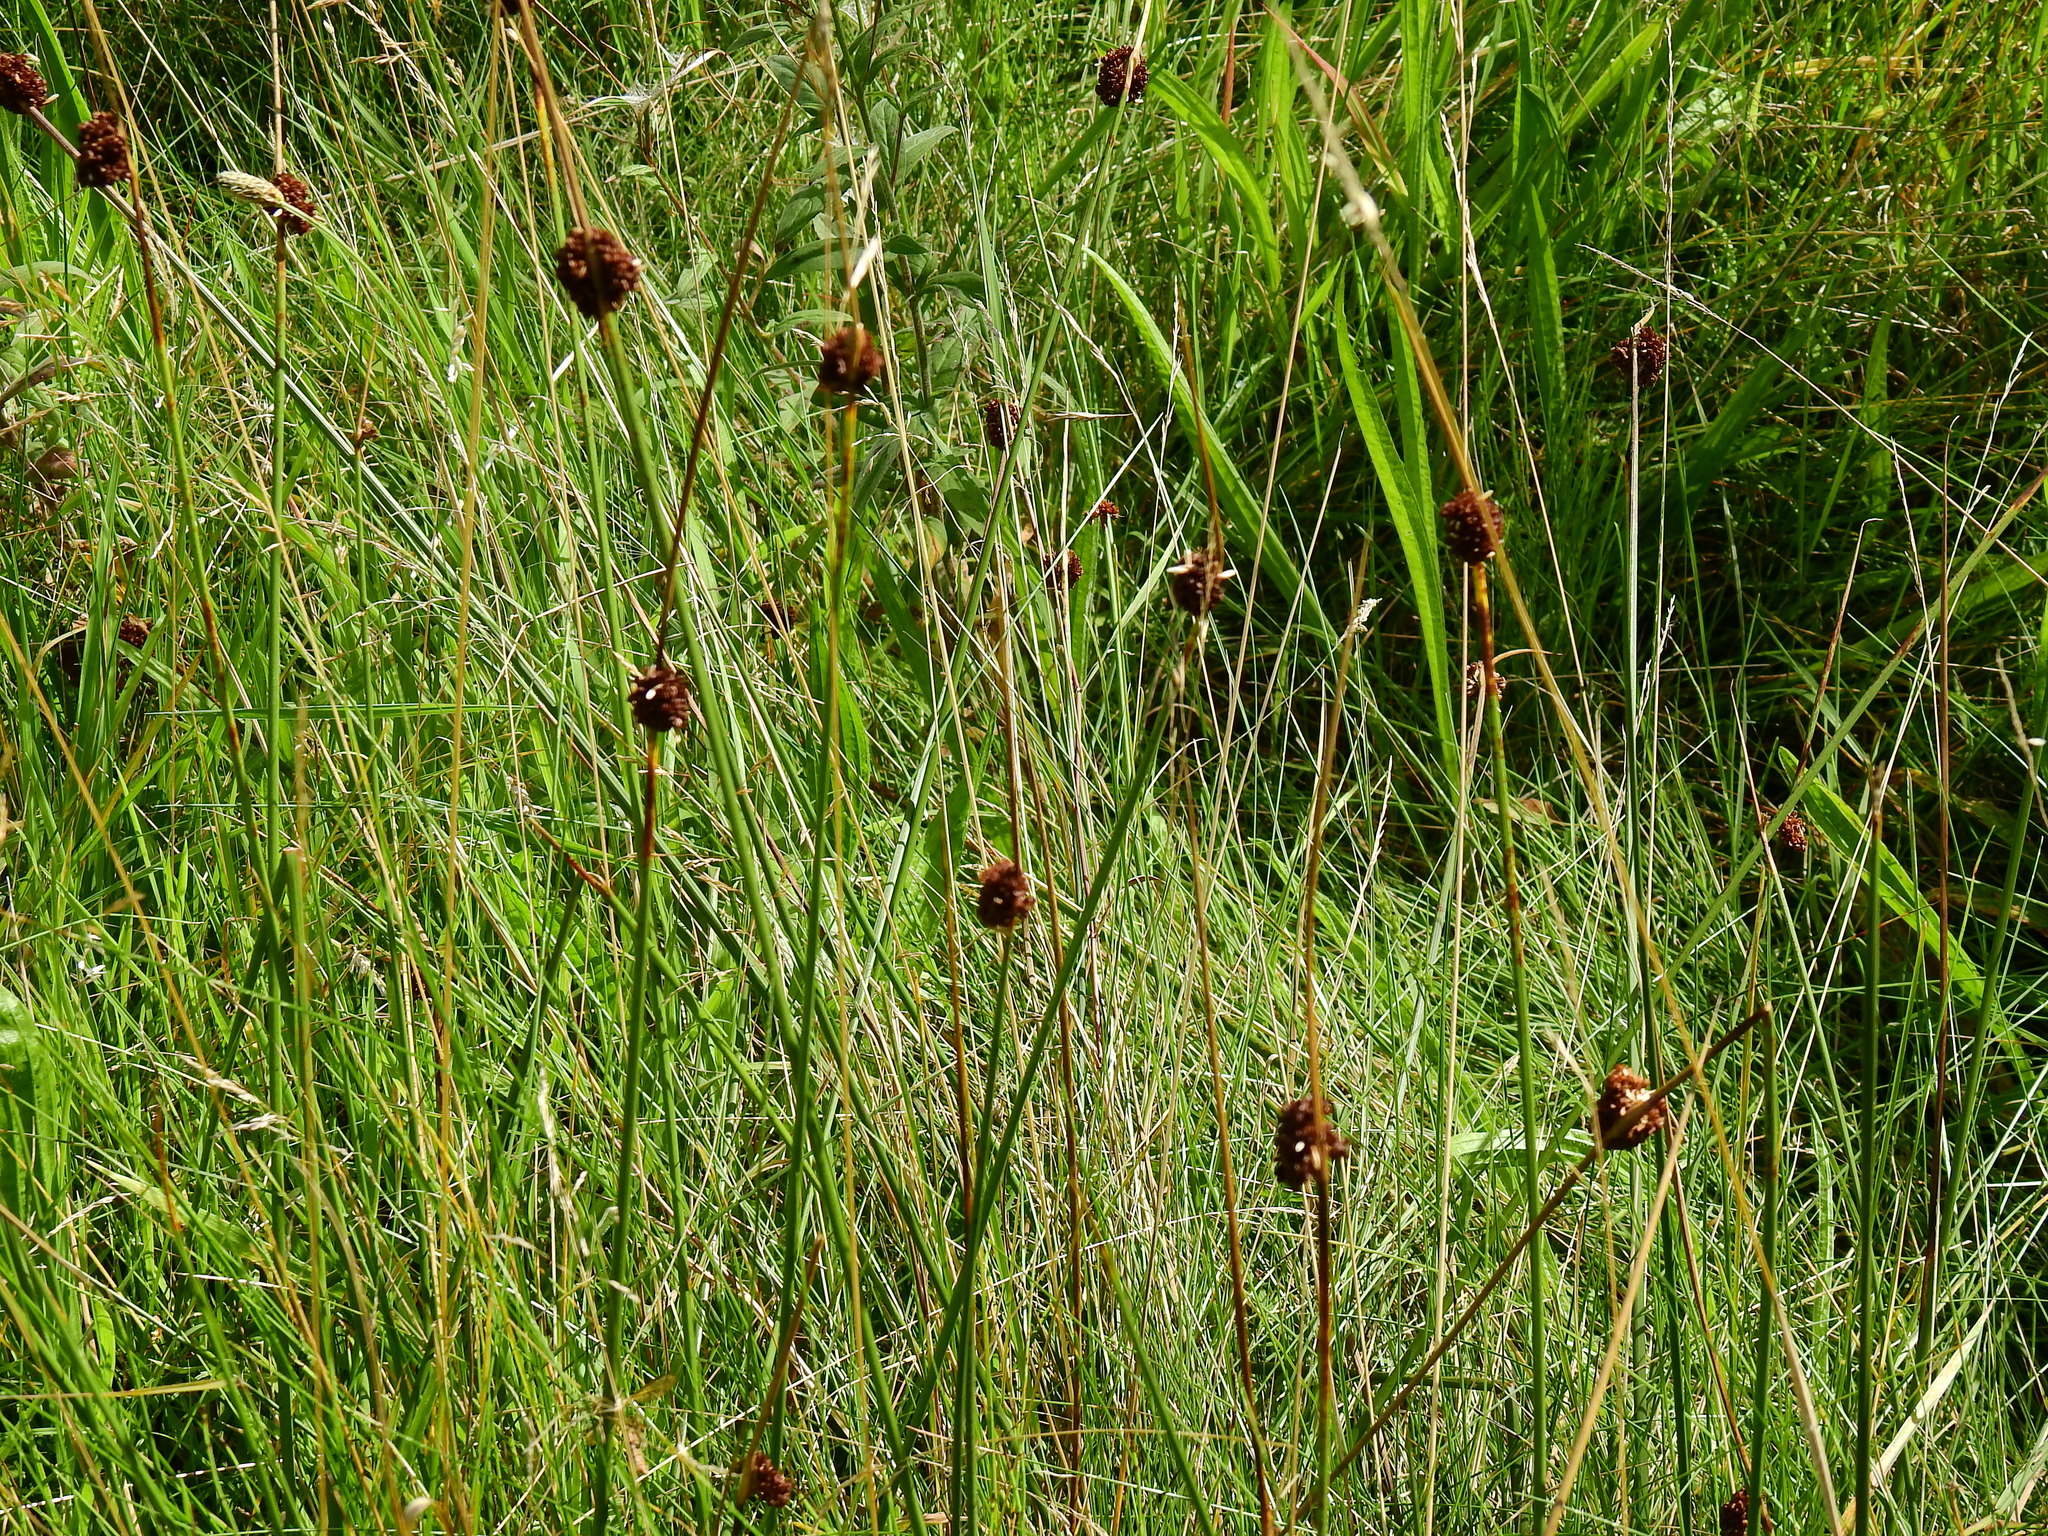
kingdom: Plantae
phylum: Tracheophyta
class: Liliopsida
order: Poales
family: Juncaceae
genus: Juncus
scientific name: Juncus effusus
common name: Soft rush
